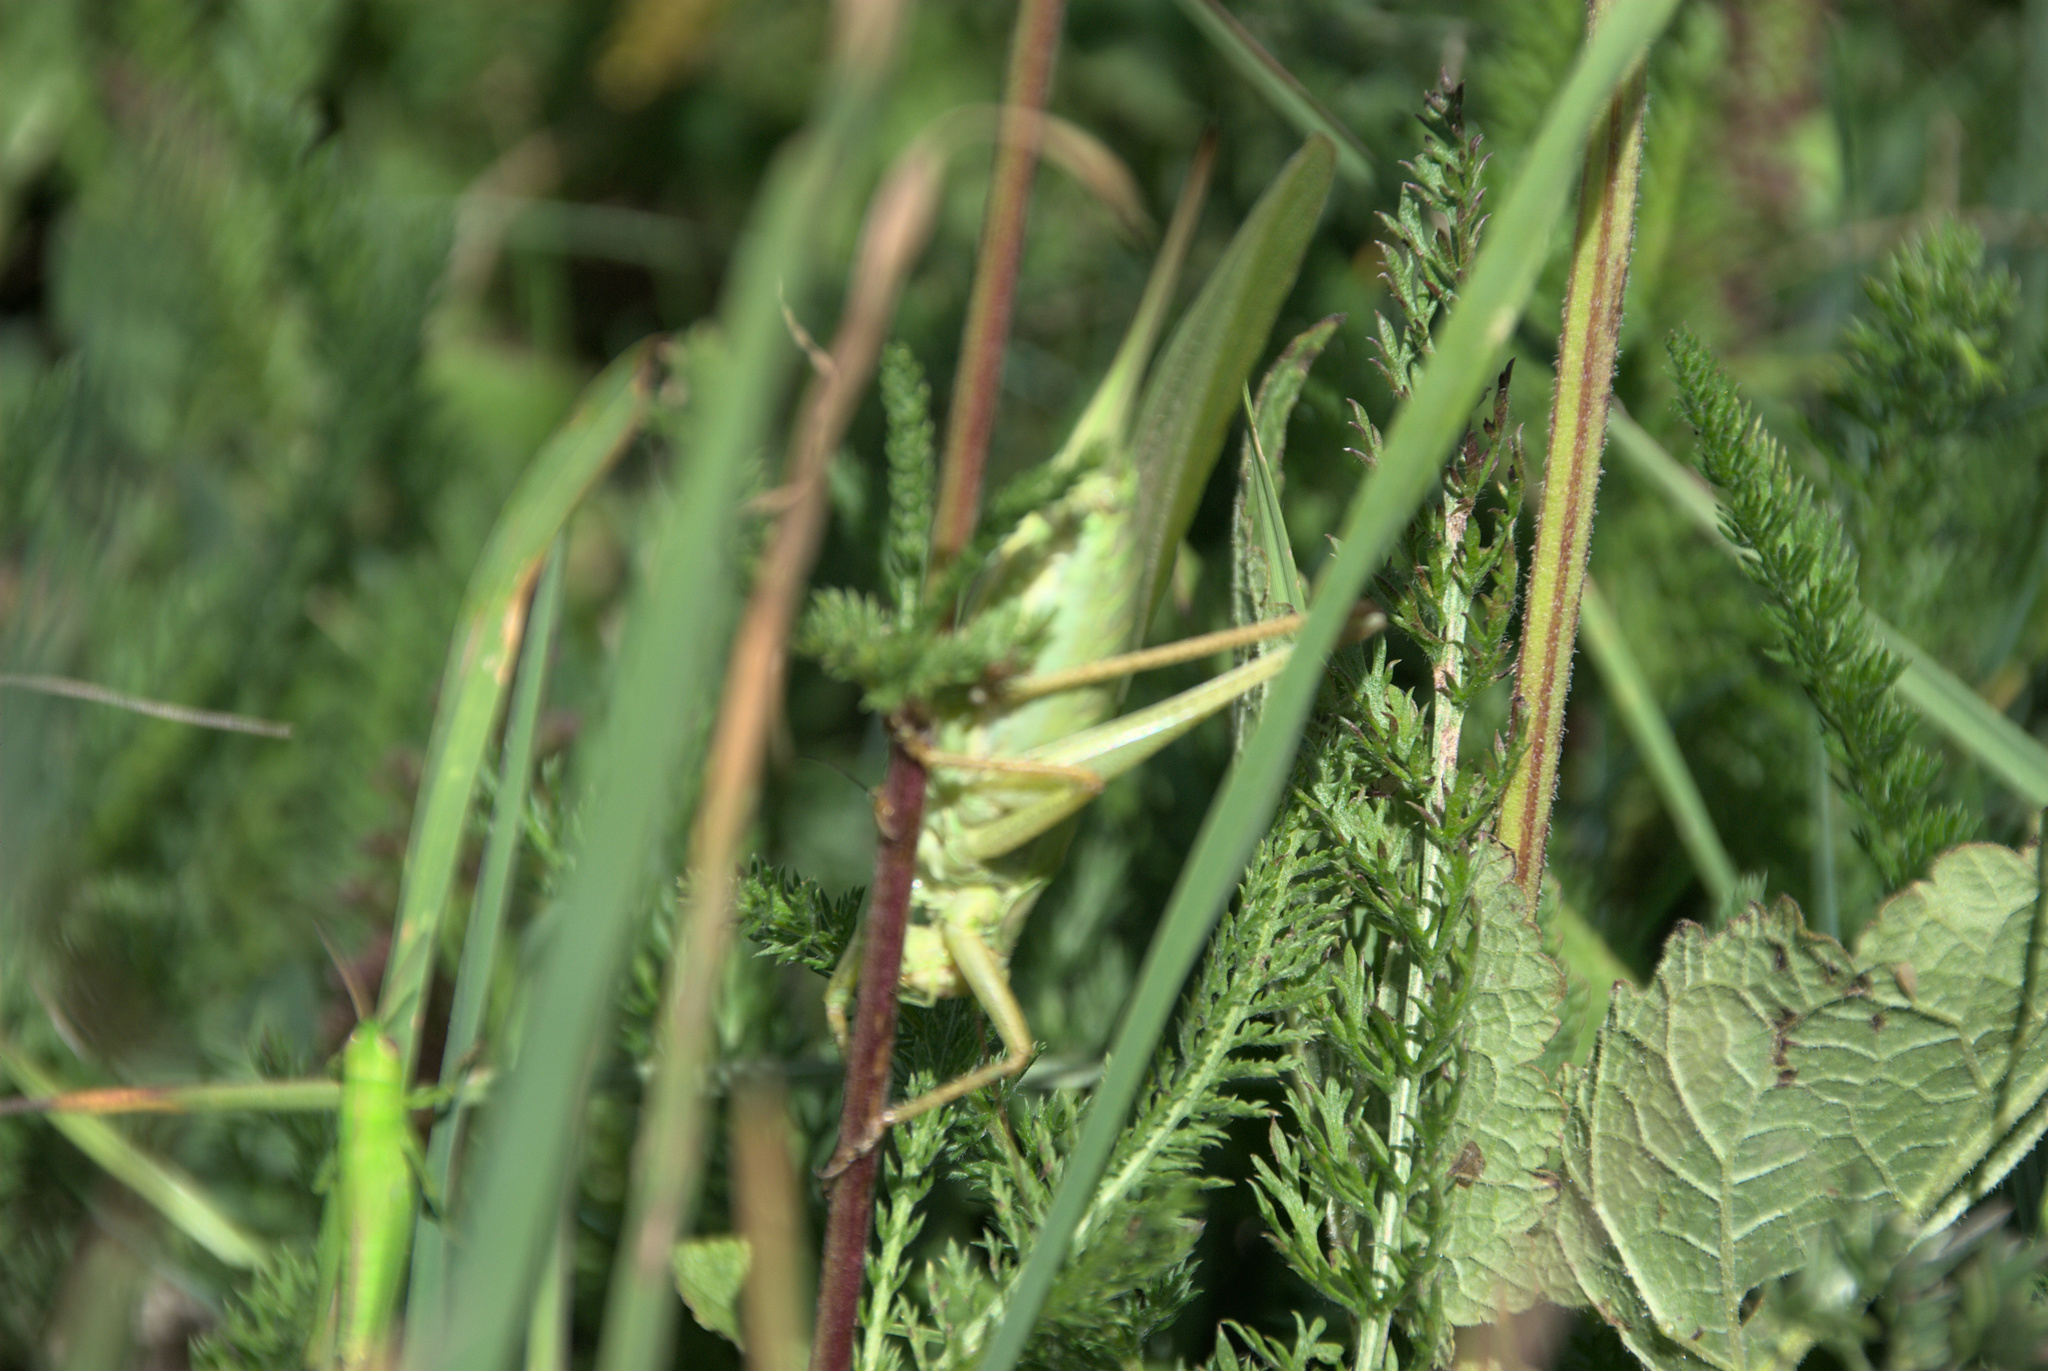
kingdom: Animalia
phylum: Arthropoda
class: Insecta
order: Orthoptera
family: Tettigoniidae
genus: Tettigonia
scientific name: Tettigonia viridissima
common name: Great green bush-cricket
